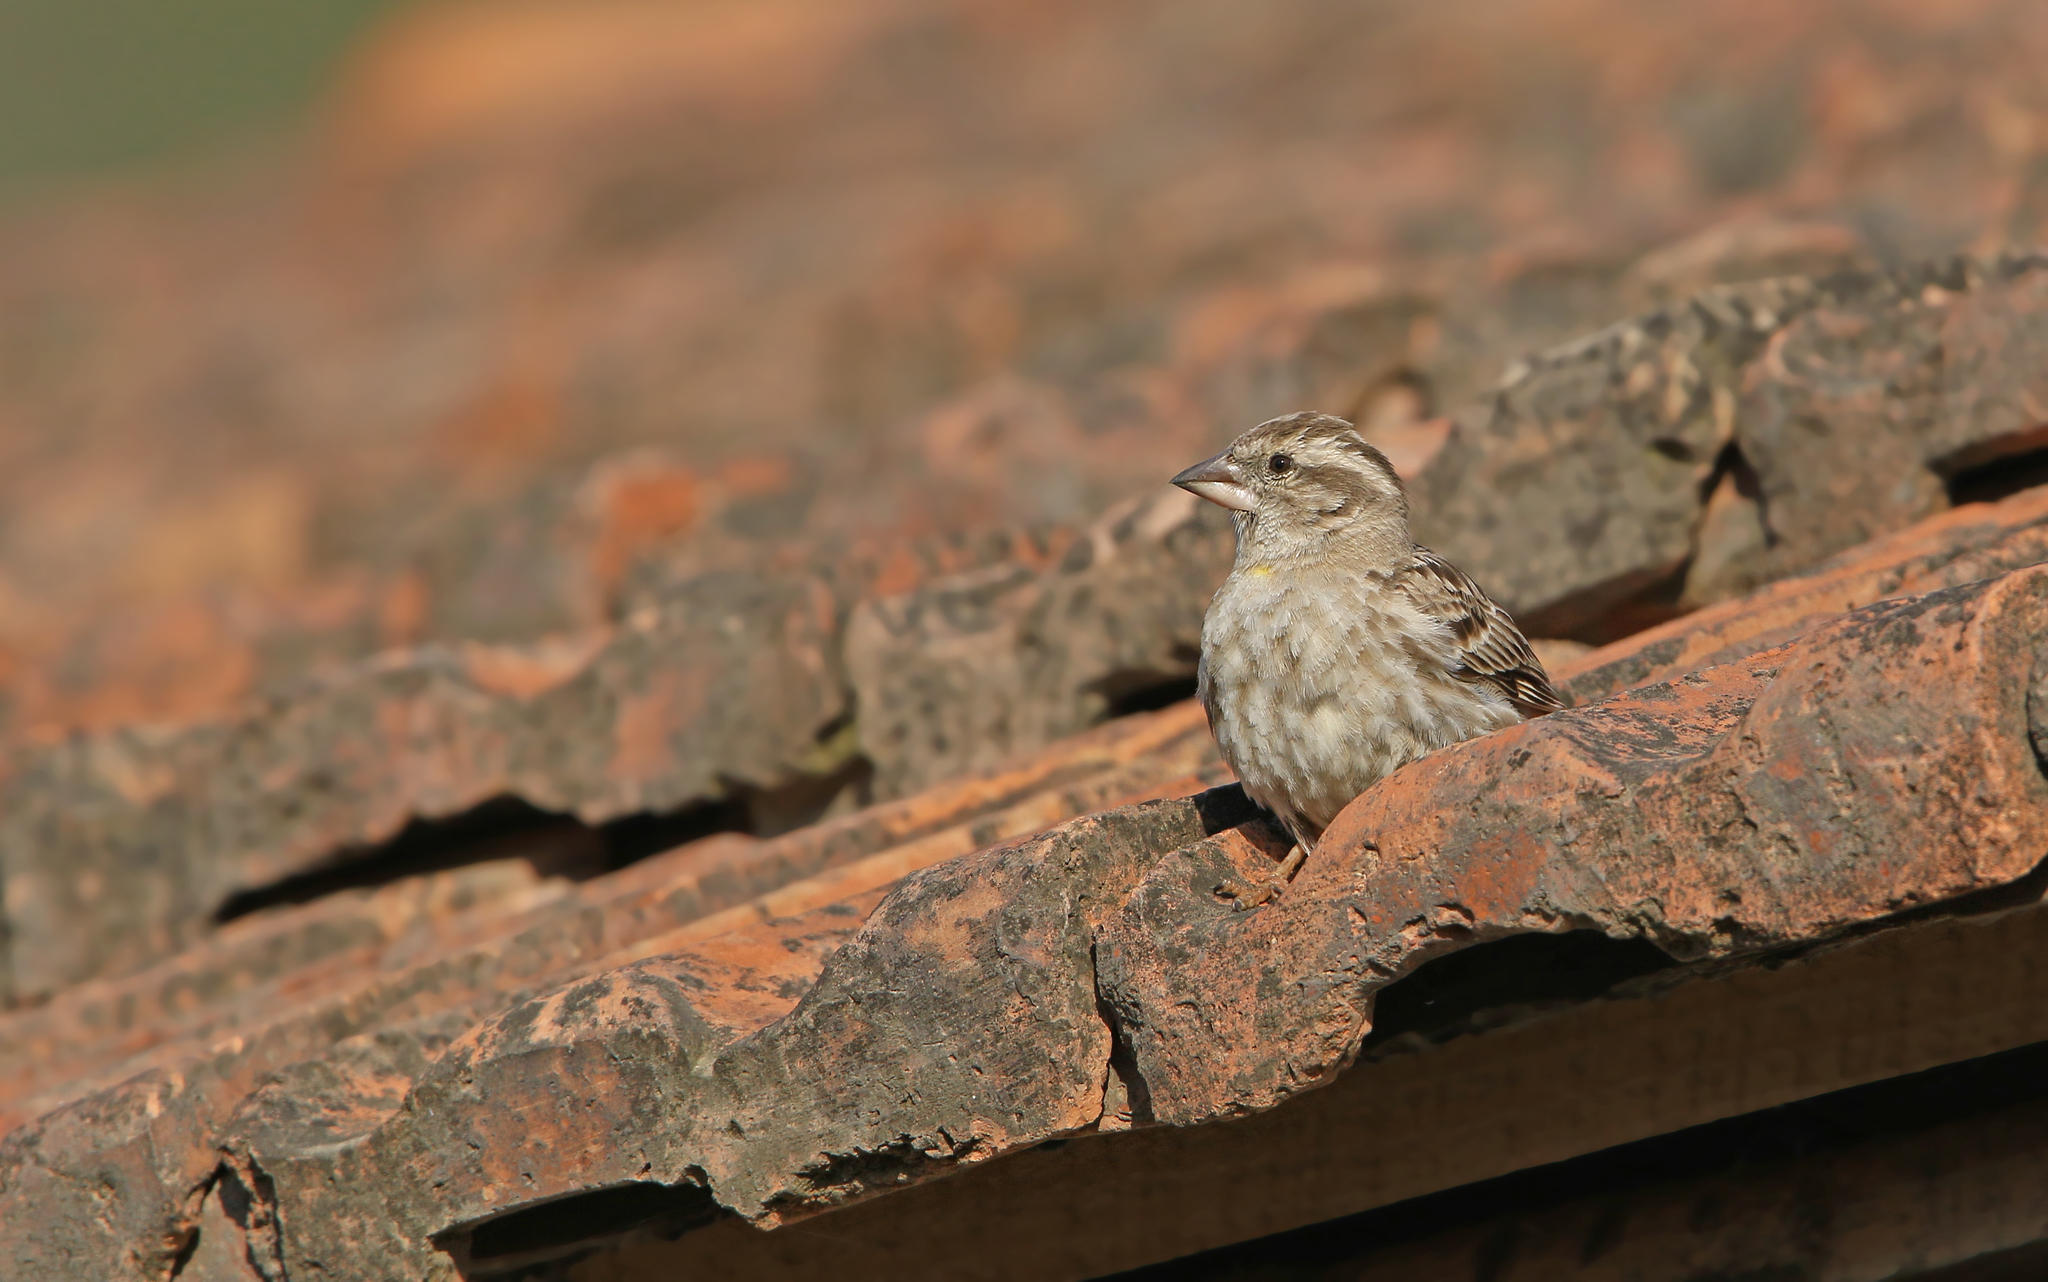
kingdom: Animalia
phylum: Chordata
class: Aves
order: Passeriformes
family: Passeridae
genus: Petronia
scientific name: Petronia petronia
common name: Rock sparrow
